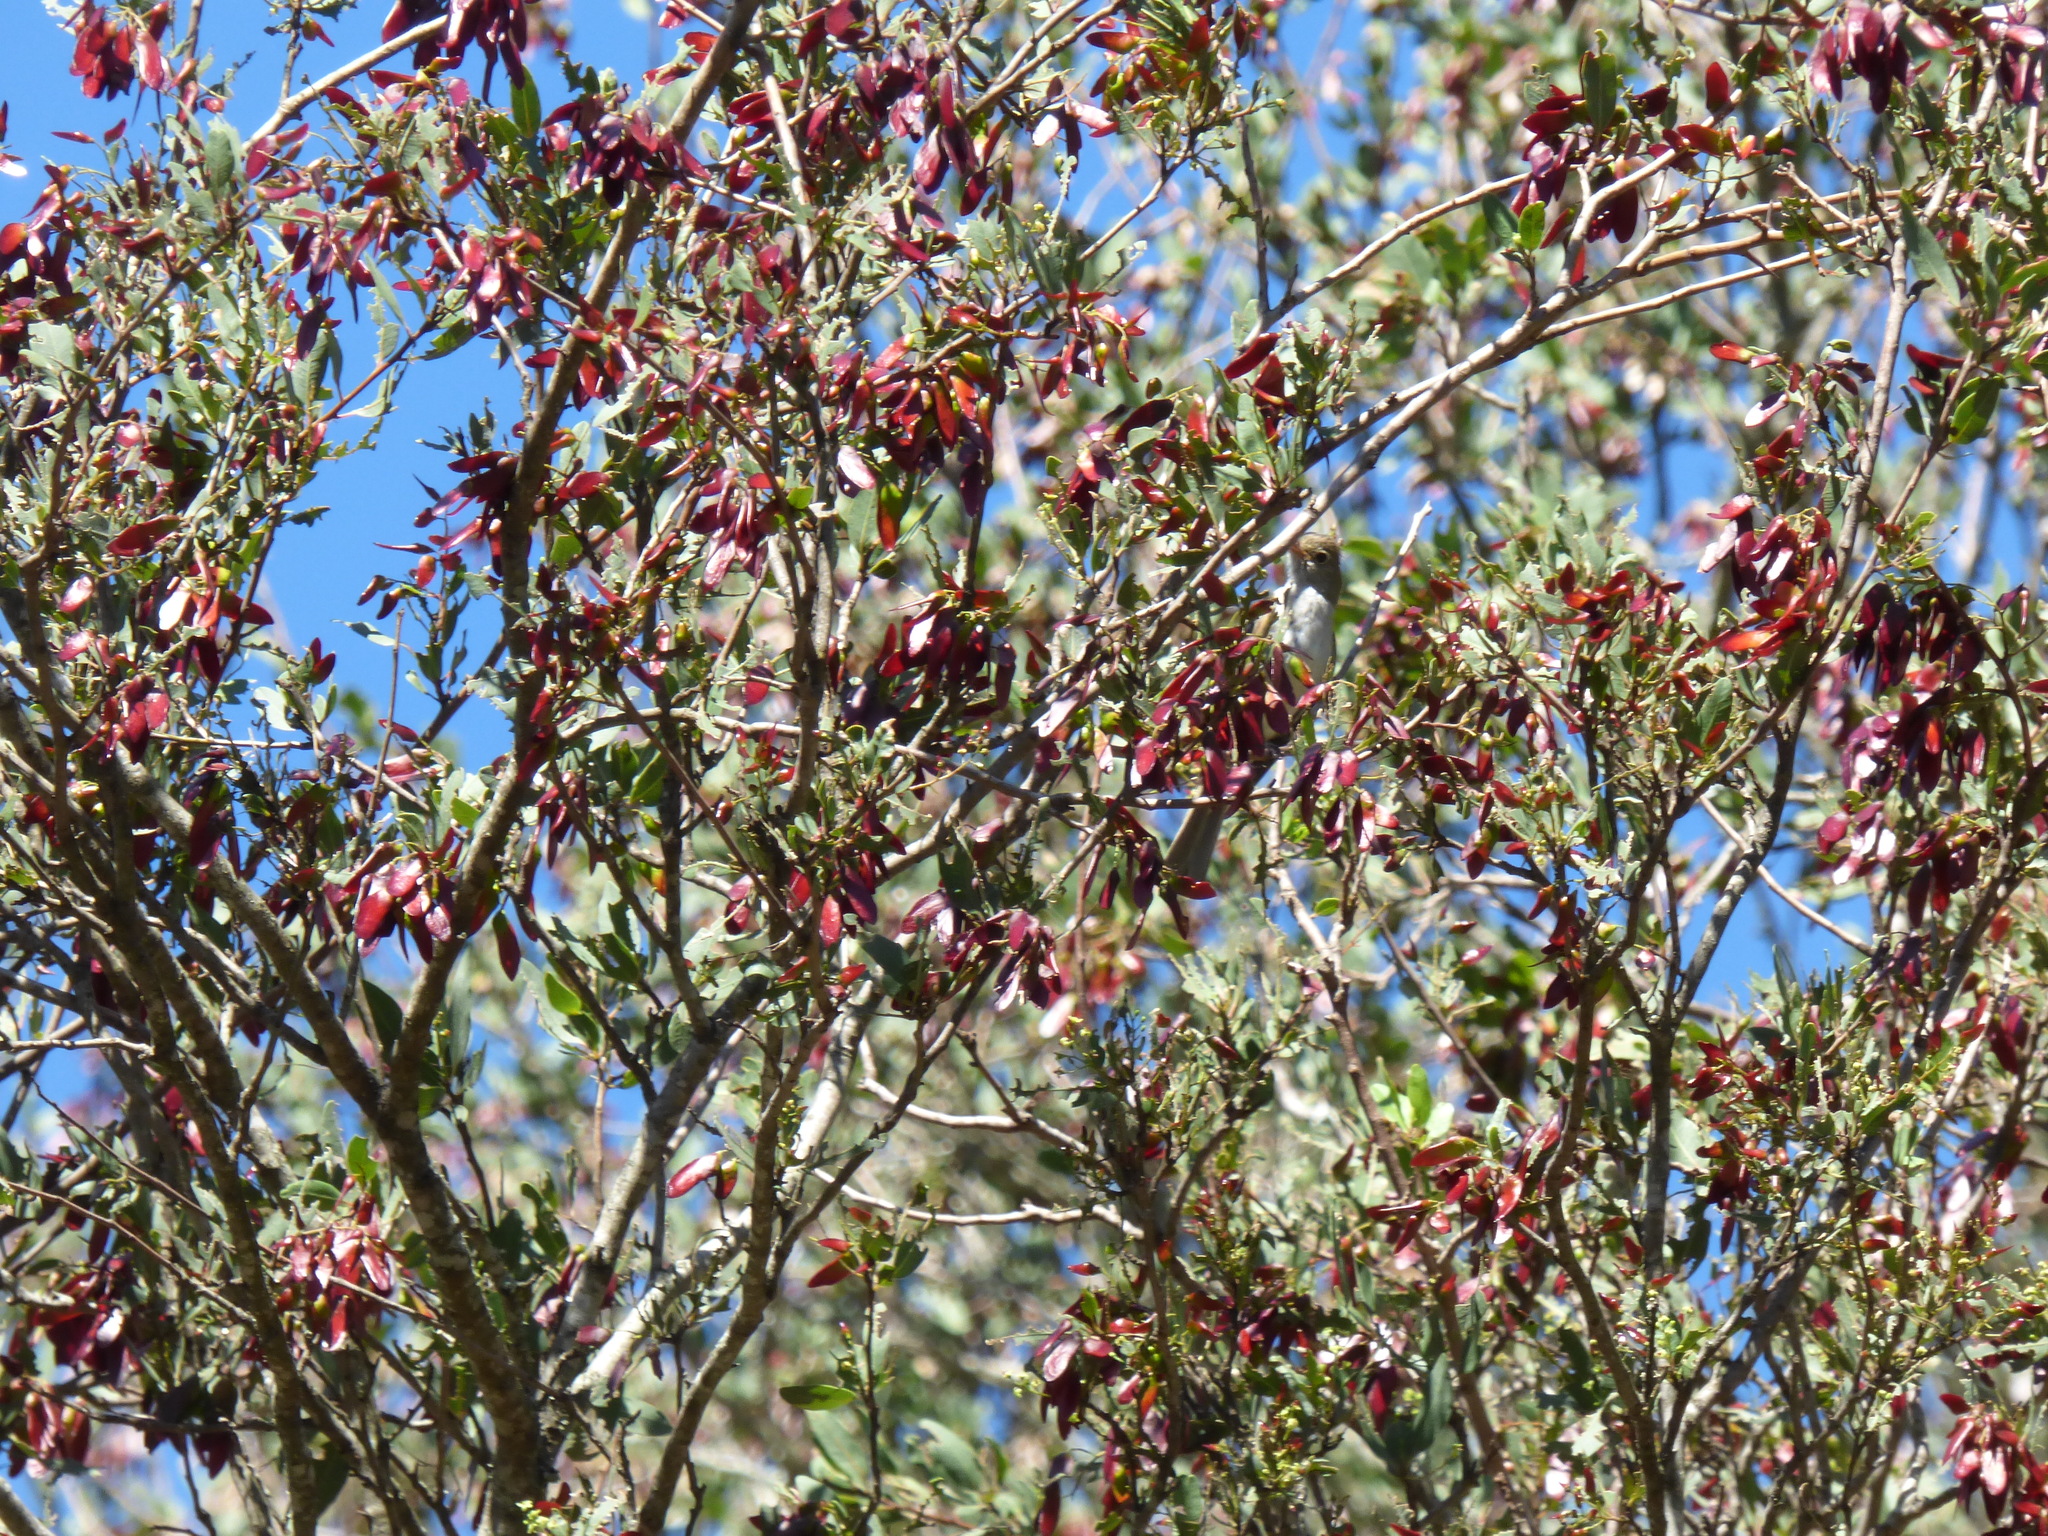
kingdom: Plantae
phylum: Tracheophyta
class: Magnoliopsida
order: Sapindales
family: Anacardiaceae
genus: Schinopsis
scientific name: Schinopsis balansae
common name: Red quebracho
